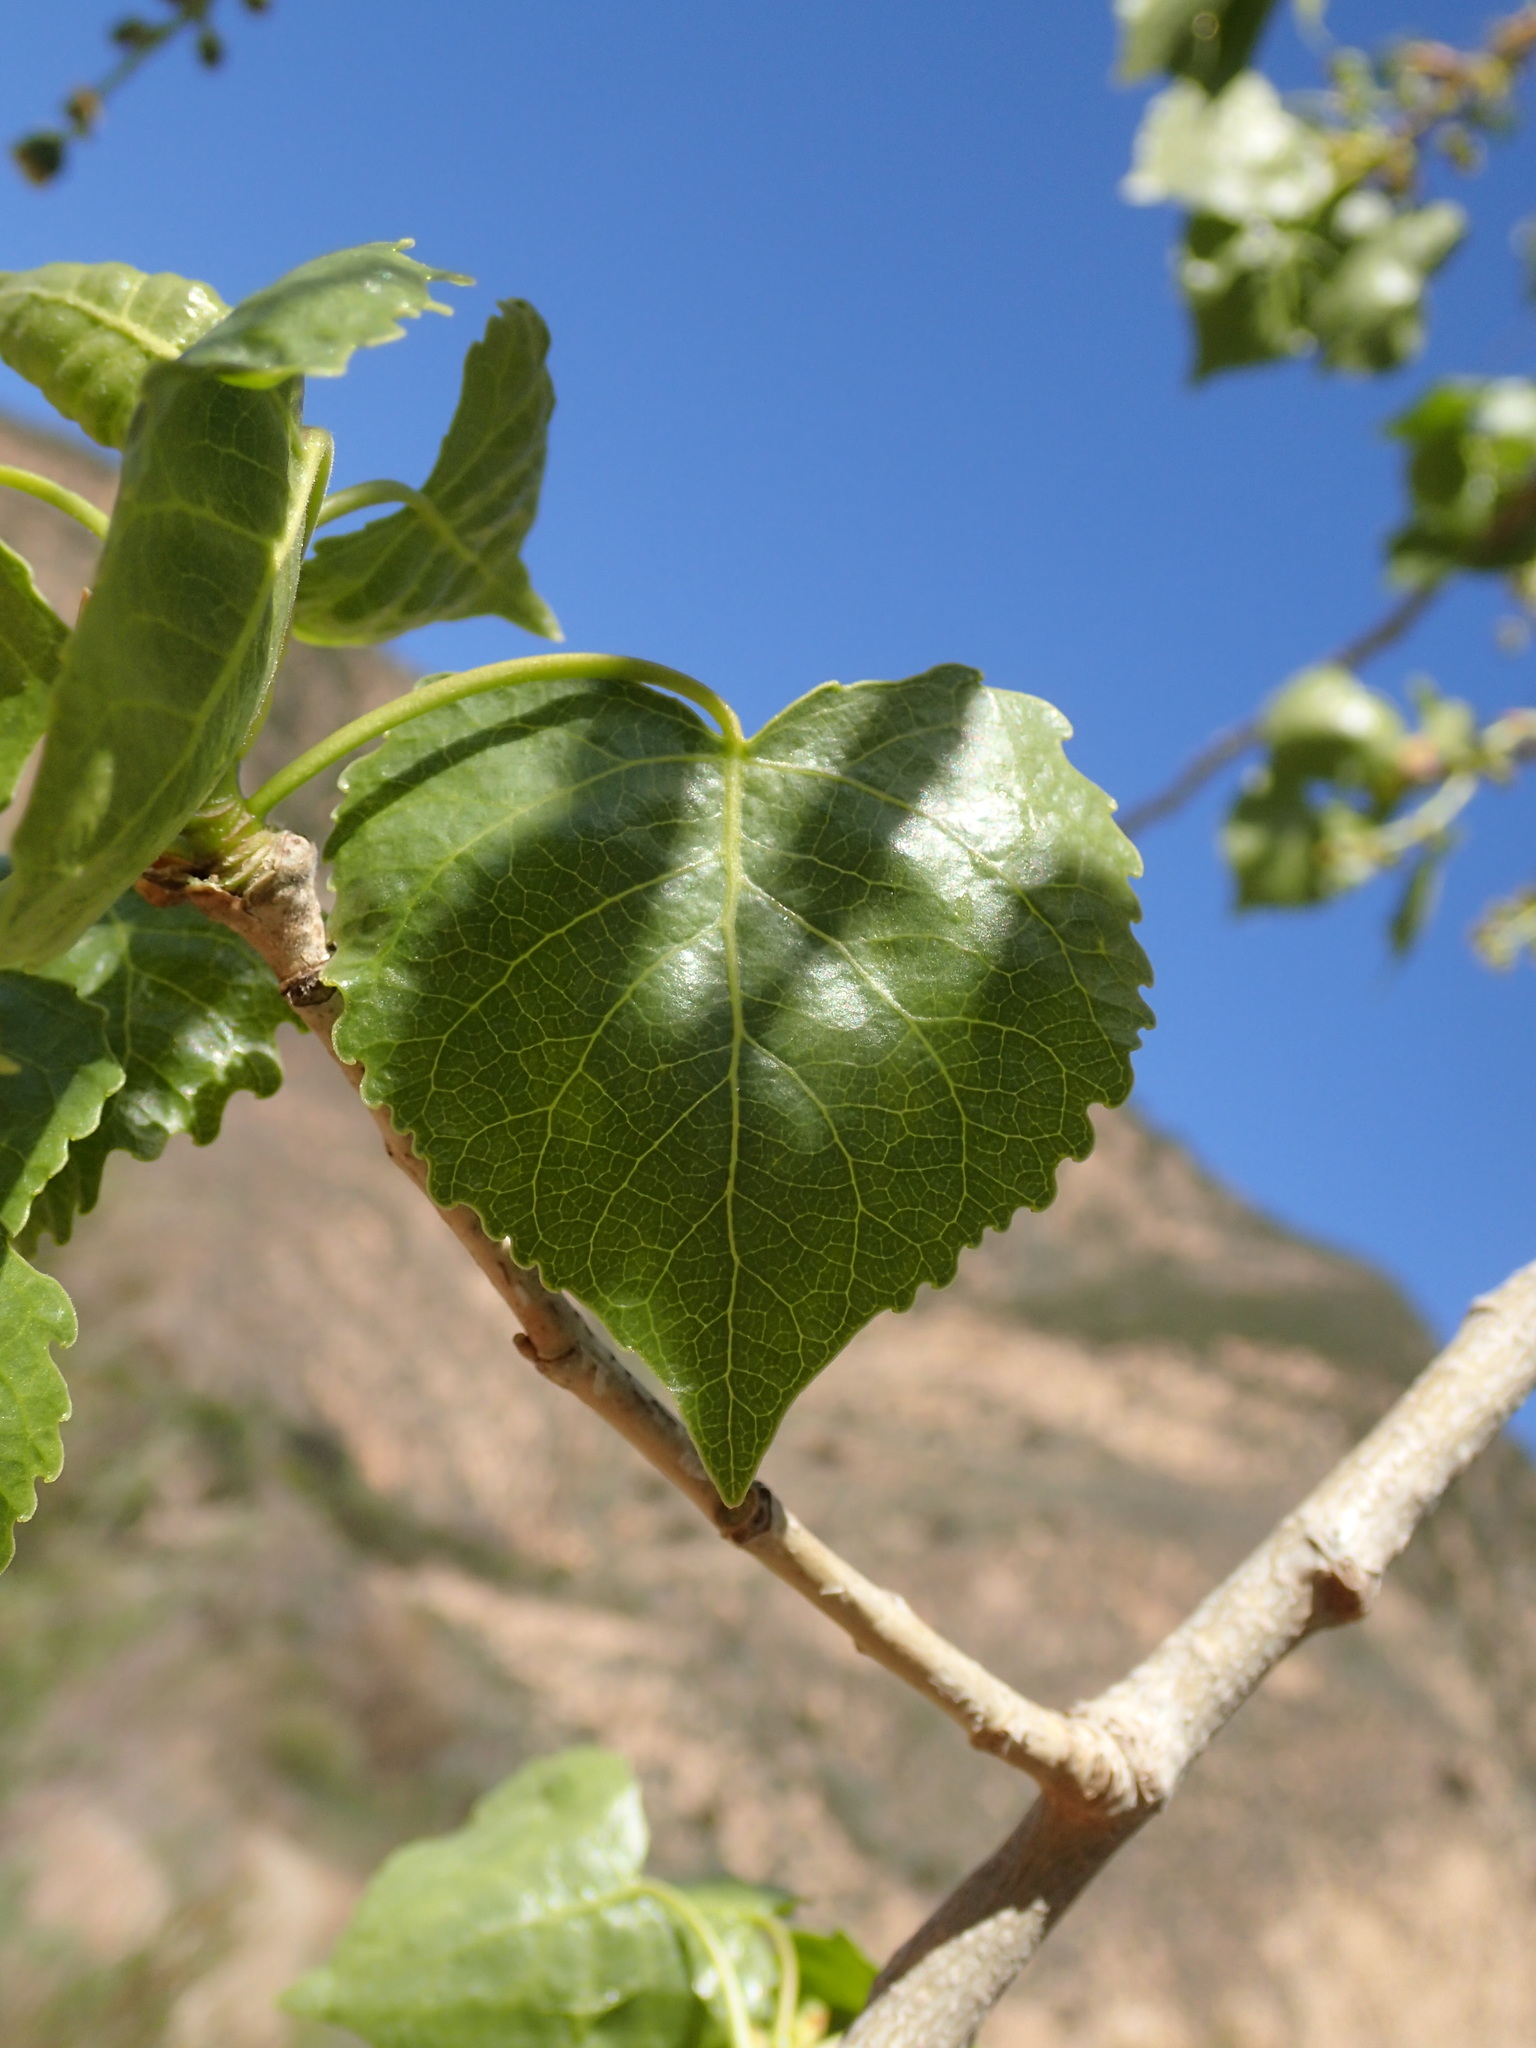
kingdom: Plantae
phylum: Tracheophyta
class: Magnoliopsida
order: Malpighiales
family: Salicaceae
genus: Populus
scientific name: Populus fremontii
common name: Fremont's cottonwood
